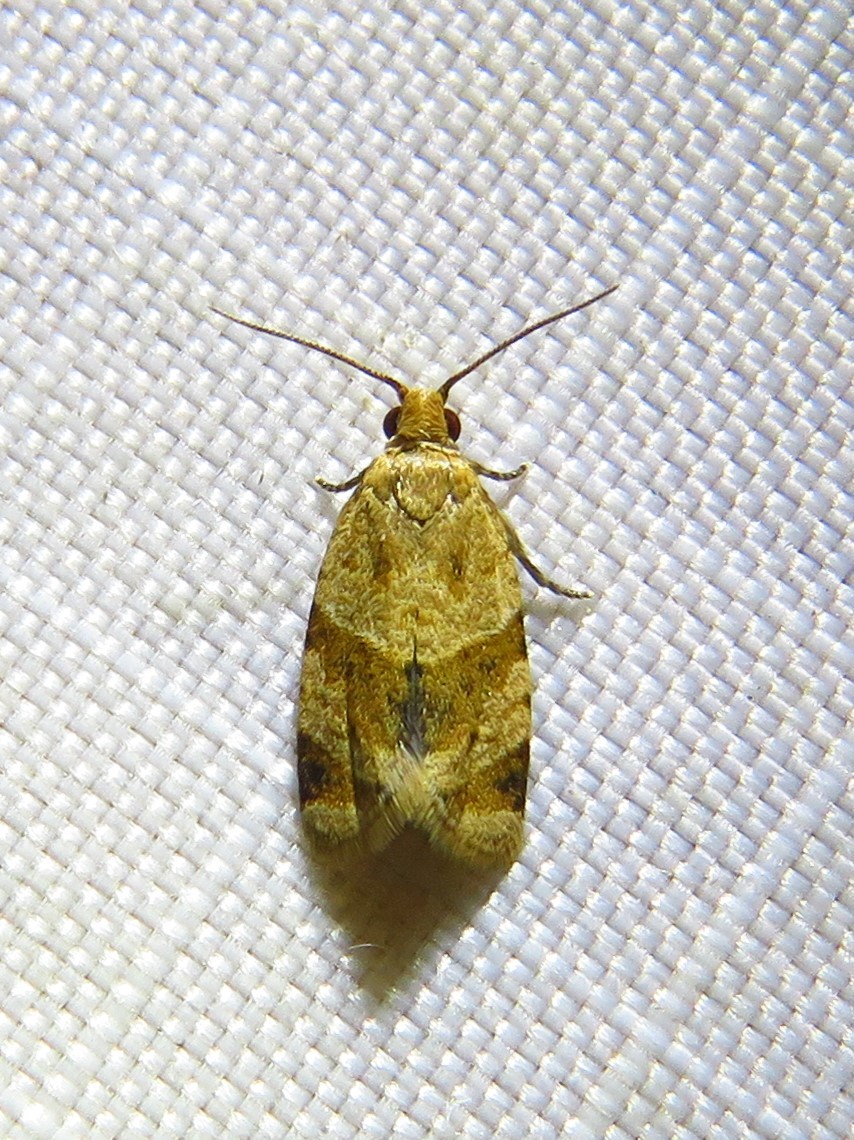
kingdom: Animalia
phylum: Arthropoda
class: Insecta
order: Lepidoptera
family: Tortricidae
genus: Clepsis
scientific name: Clepsis peritana
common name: Garden tortrix
